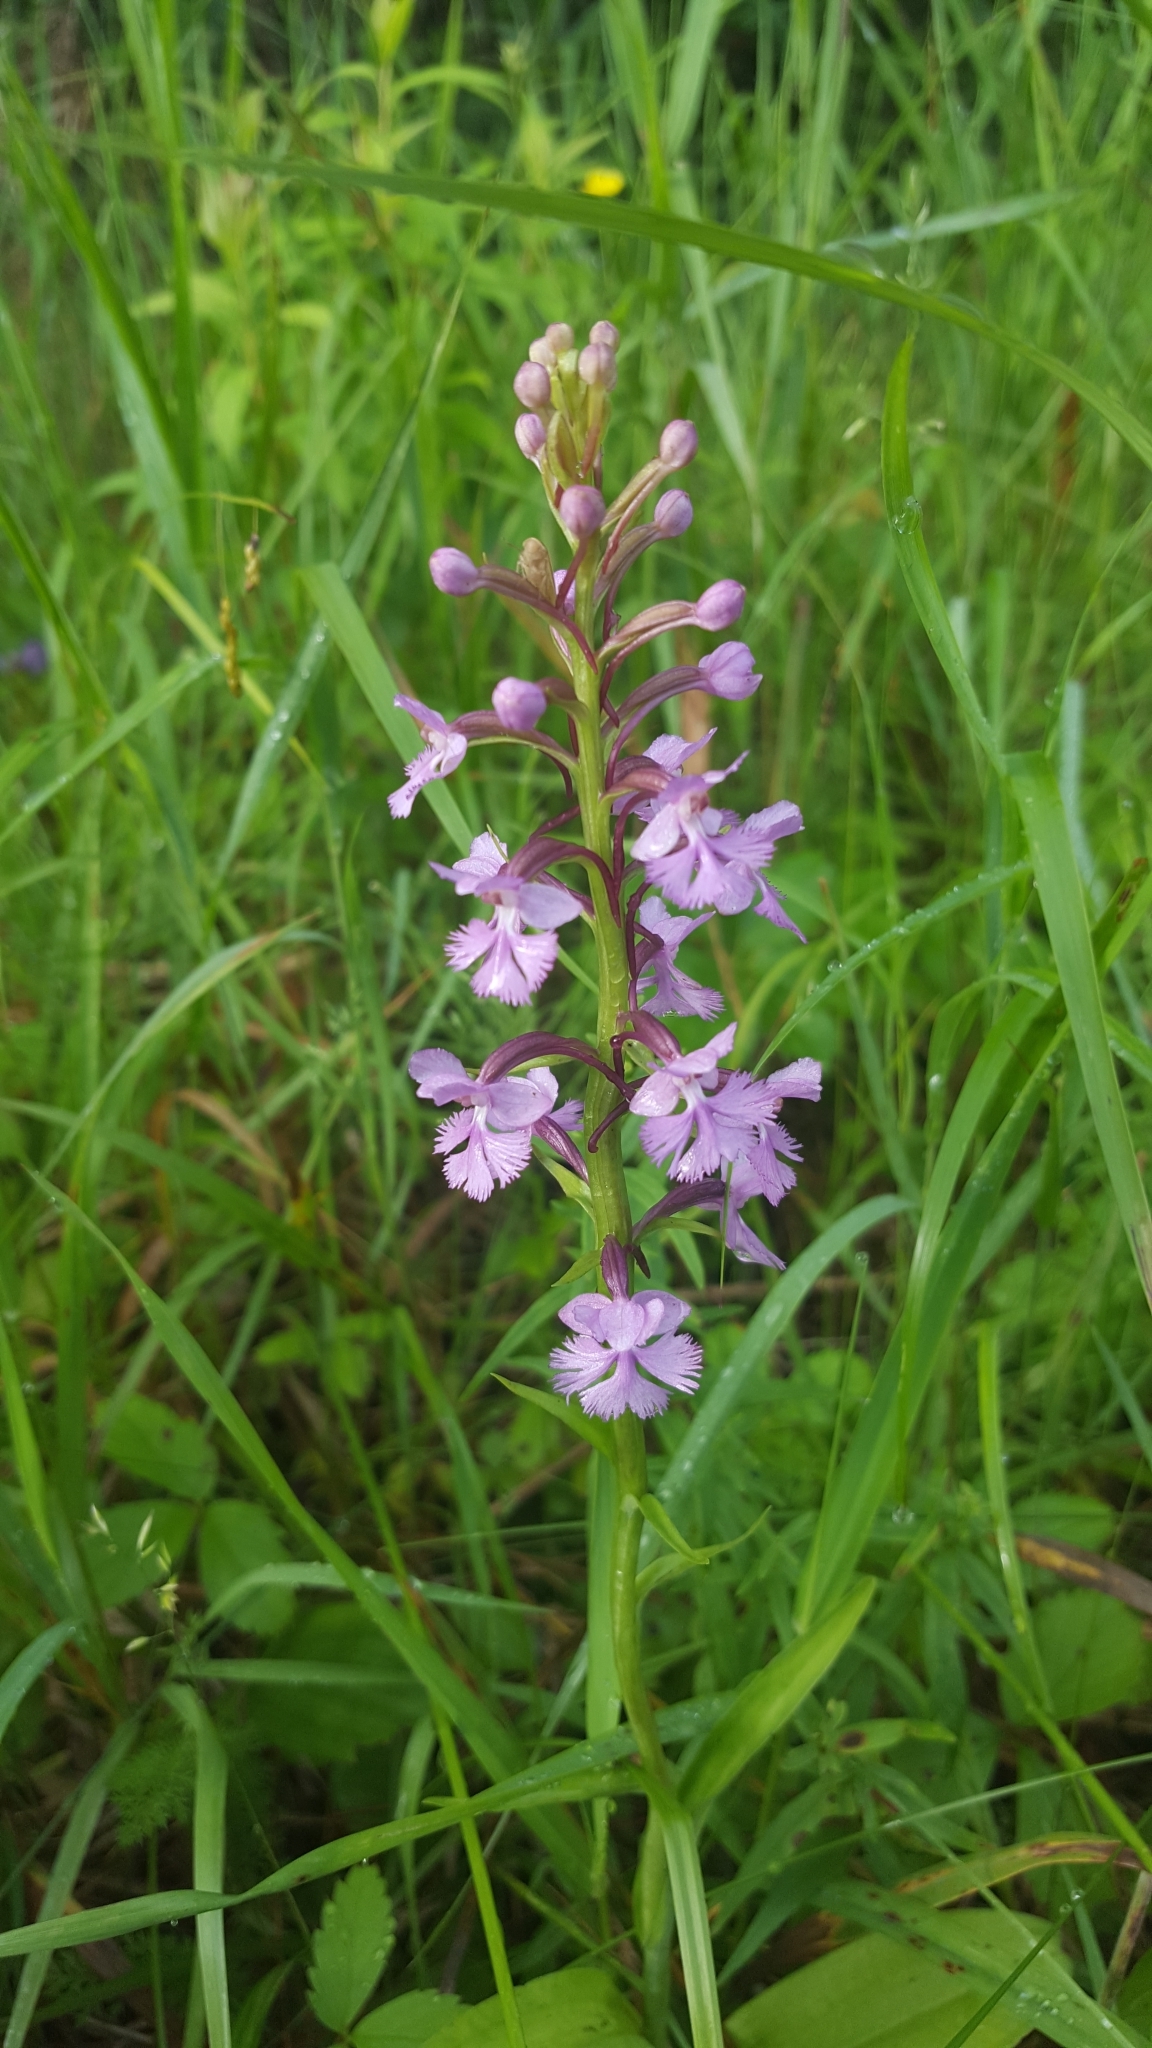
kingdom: Plantae
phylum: Tracheophyta
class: Liliopsida
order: Asparagales
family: Orchidaceae
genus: Platanthera
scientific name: Platanthera psycodes
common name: Lesser purple fringed orchid
